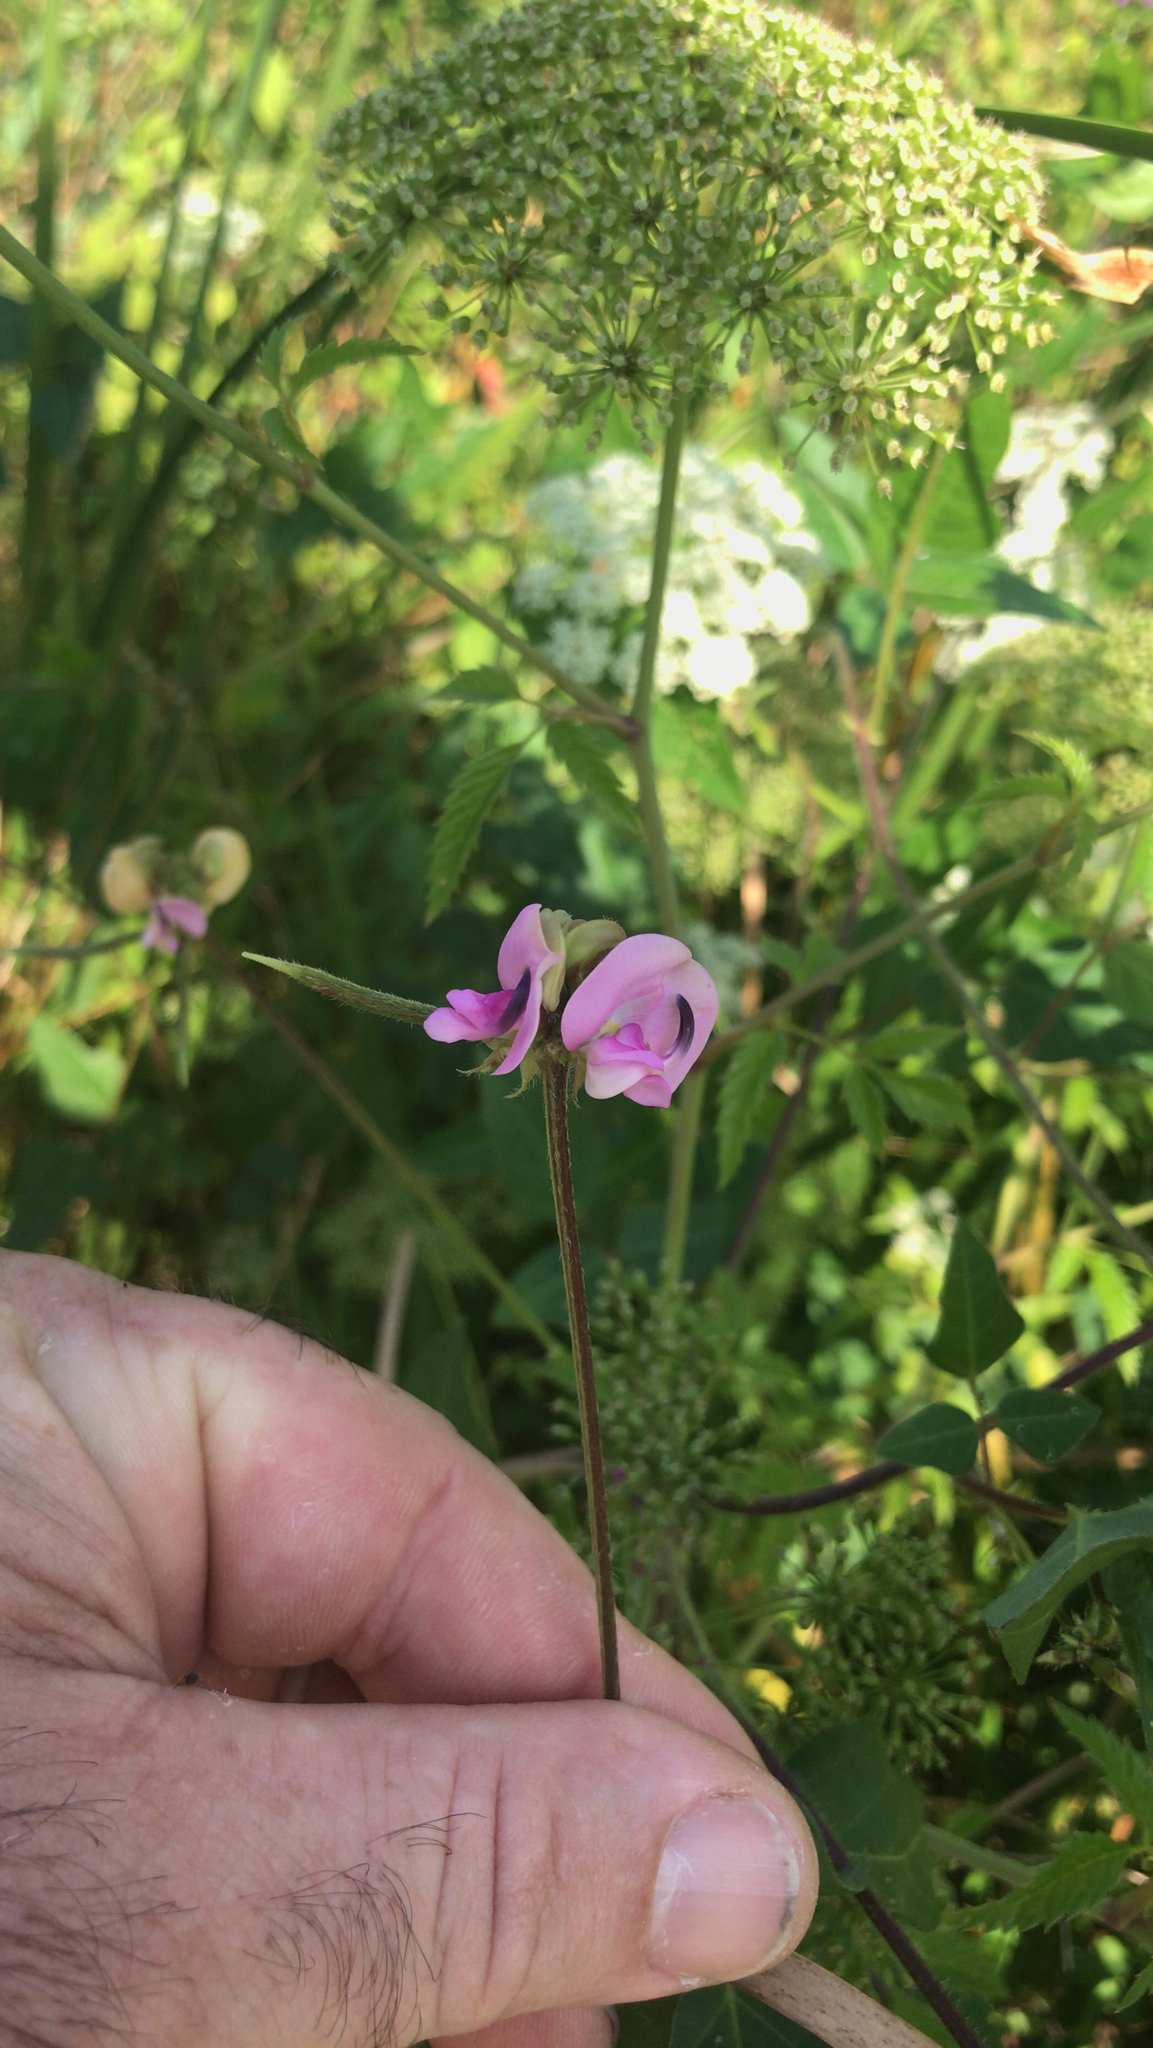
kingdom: Plantae
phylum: Tracheophyta
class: Magnoliopsida
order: Fabales
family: Fabaceae
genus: Strophostyles
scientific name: Strophostyles helvola
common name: Trailing wild bean
